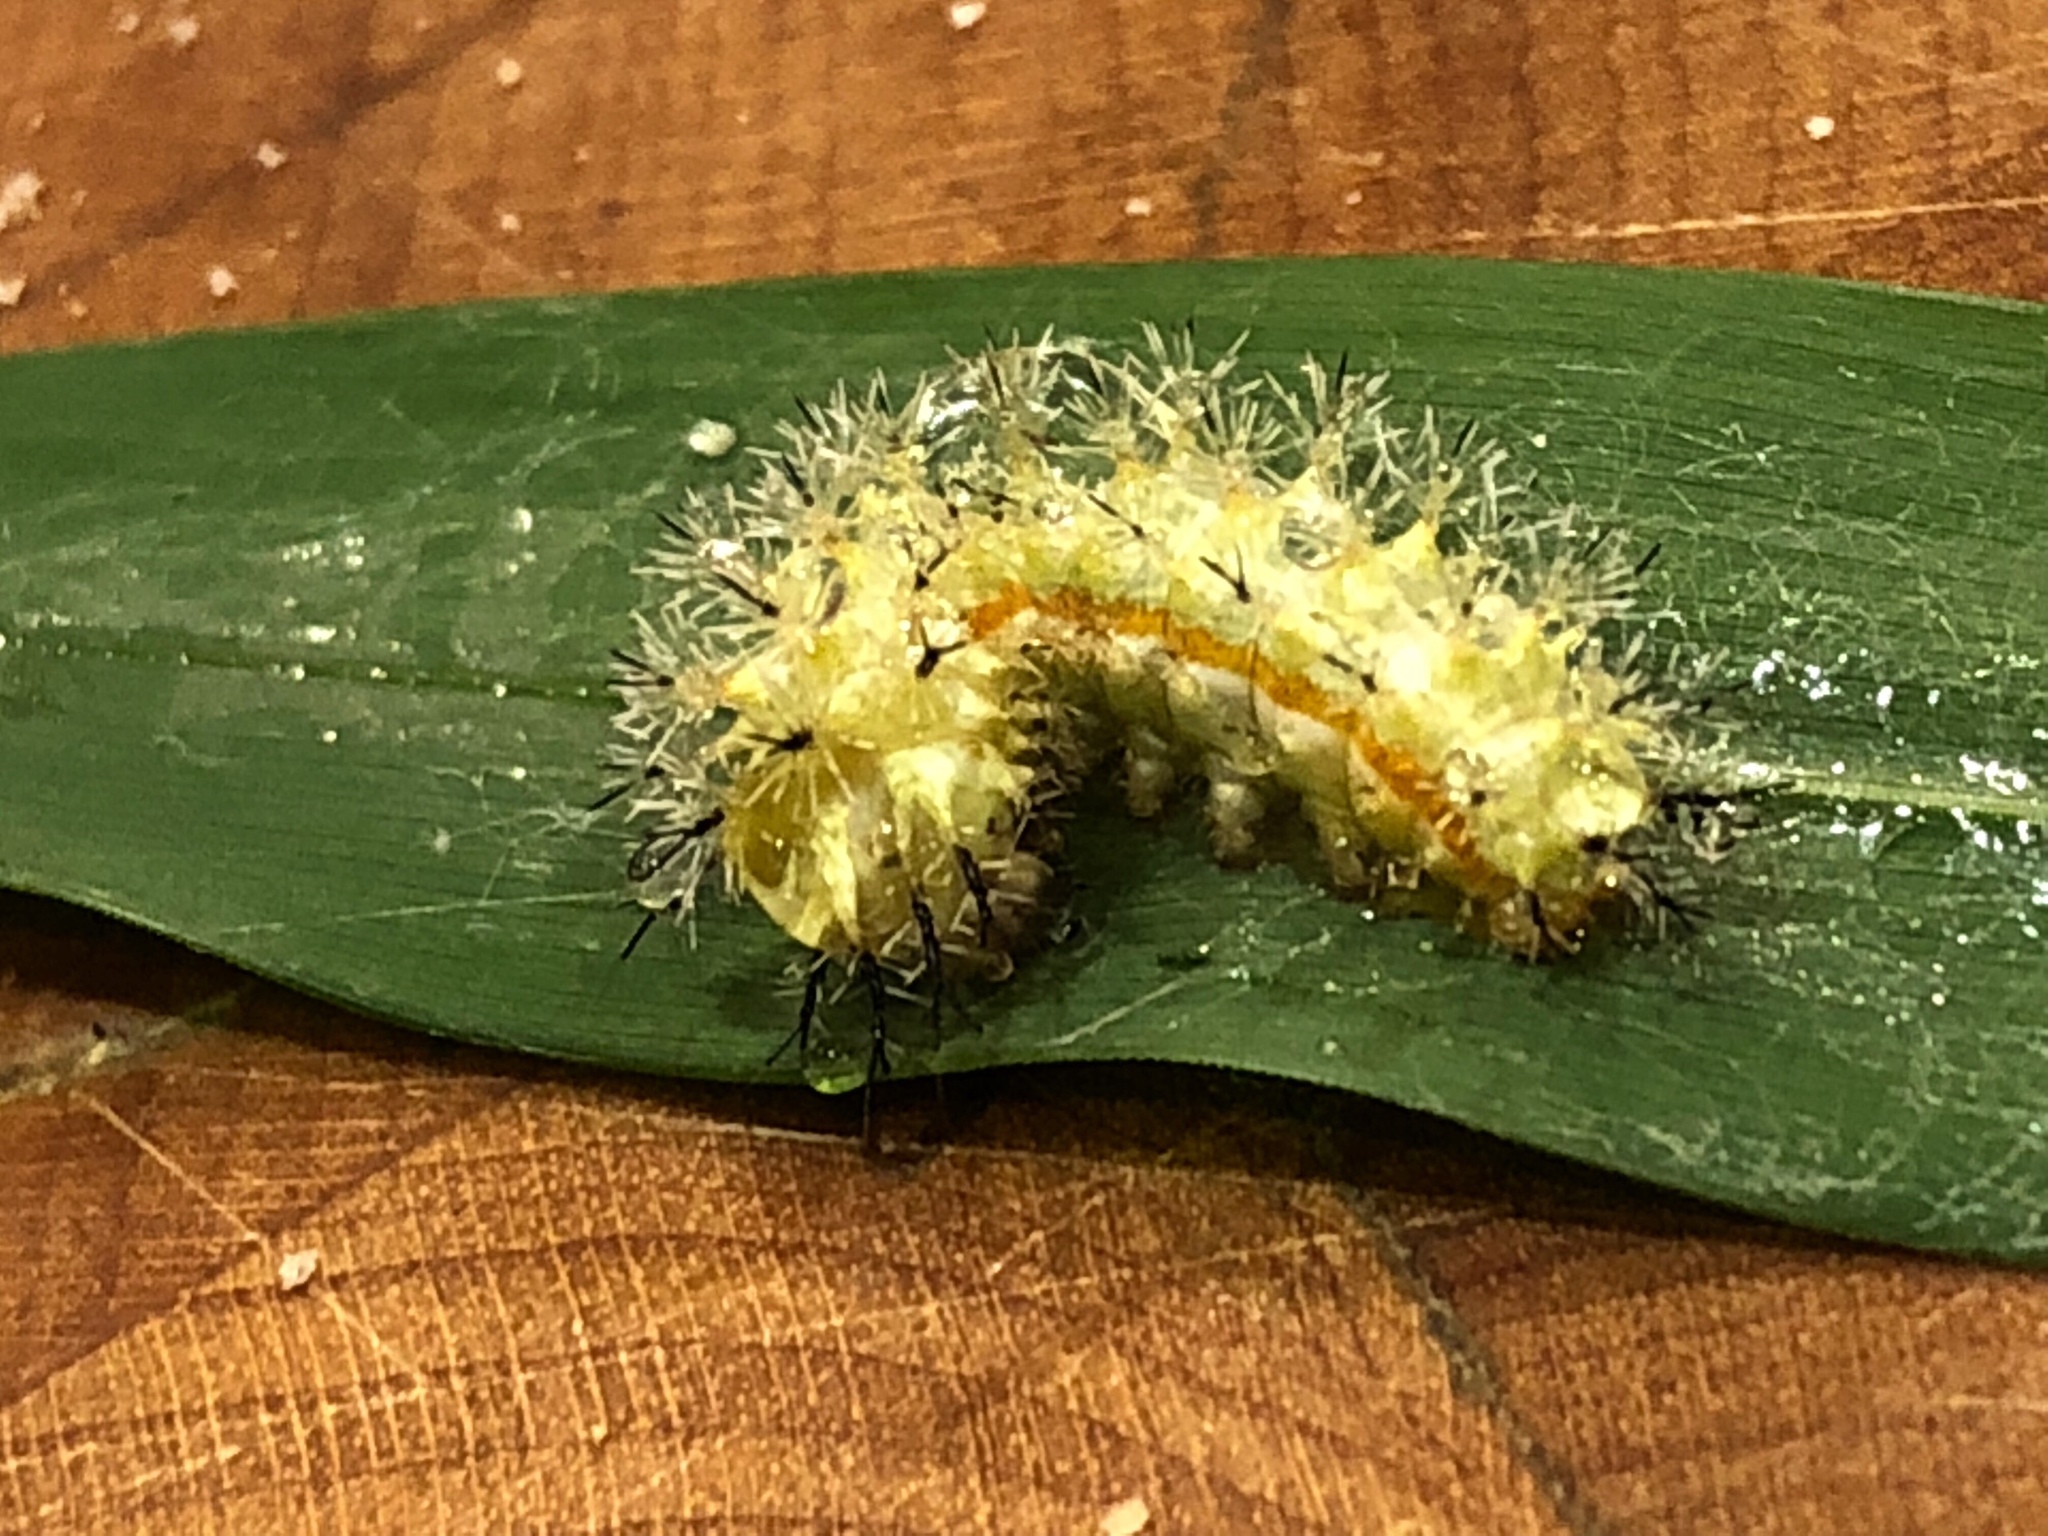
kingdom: Animalia
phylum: Arthropoda
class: Insecta
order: Lepidoptera
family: Saturniidae
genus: Automeris
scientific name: Automeris io
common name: Io moth
